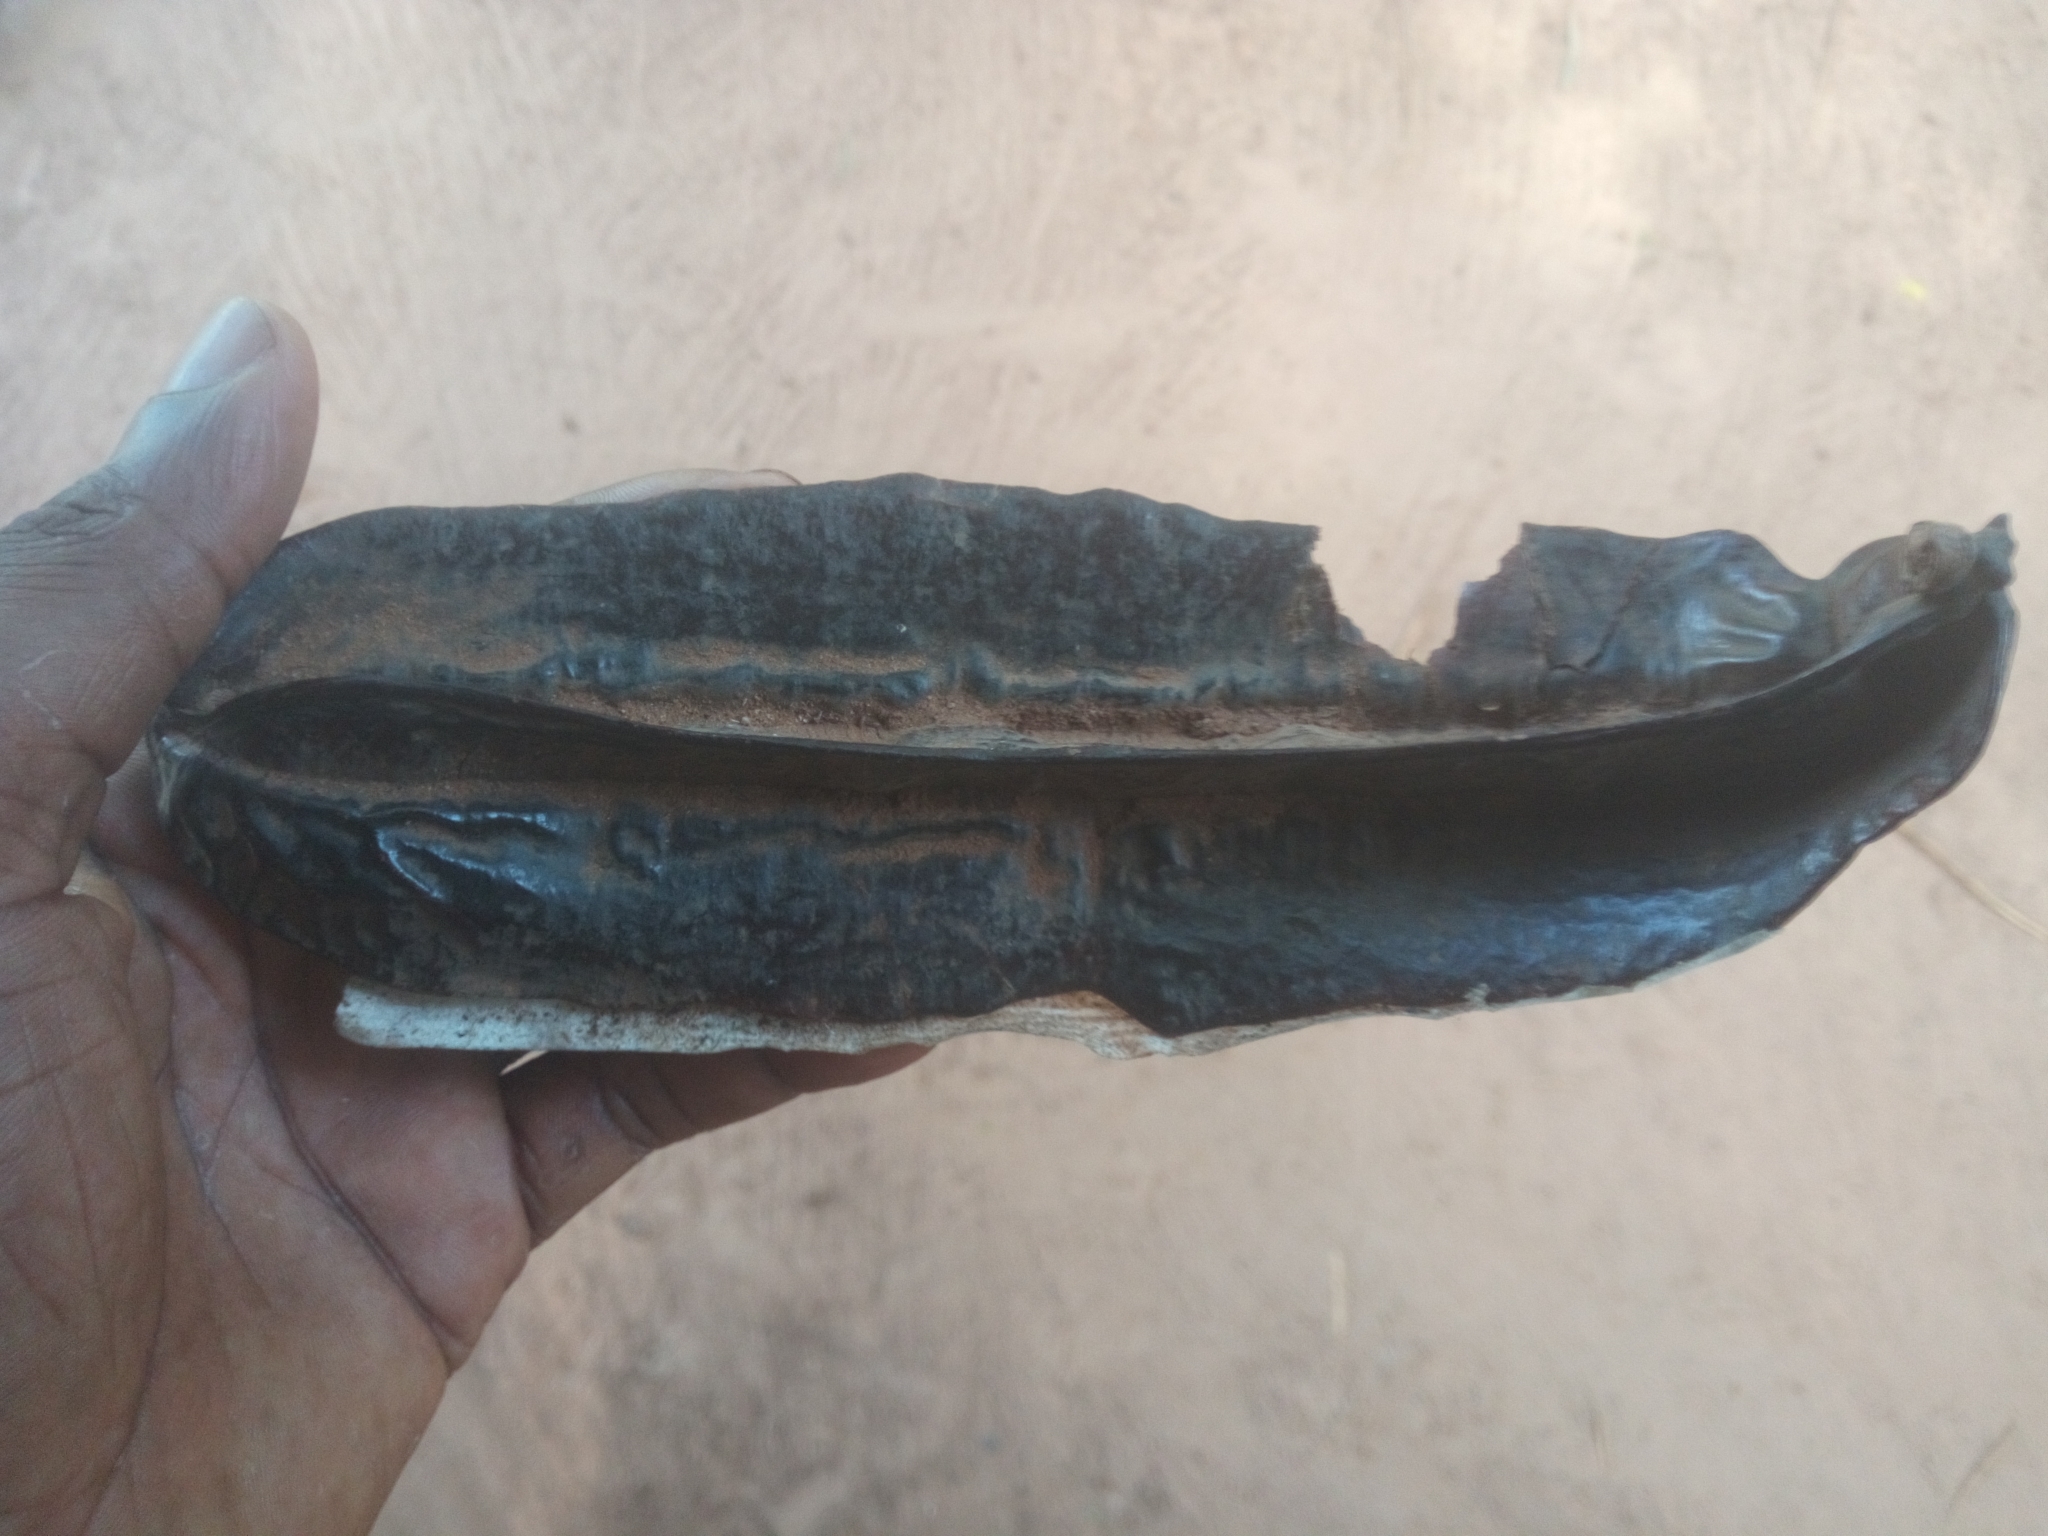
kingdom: Plantae
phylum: Tracheophyta
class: Magnoliopsida
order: Fabales
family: Fabaceae
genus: Tetrapleura
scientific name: Tetrapleura tetraptera
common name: Aridan
